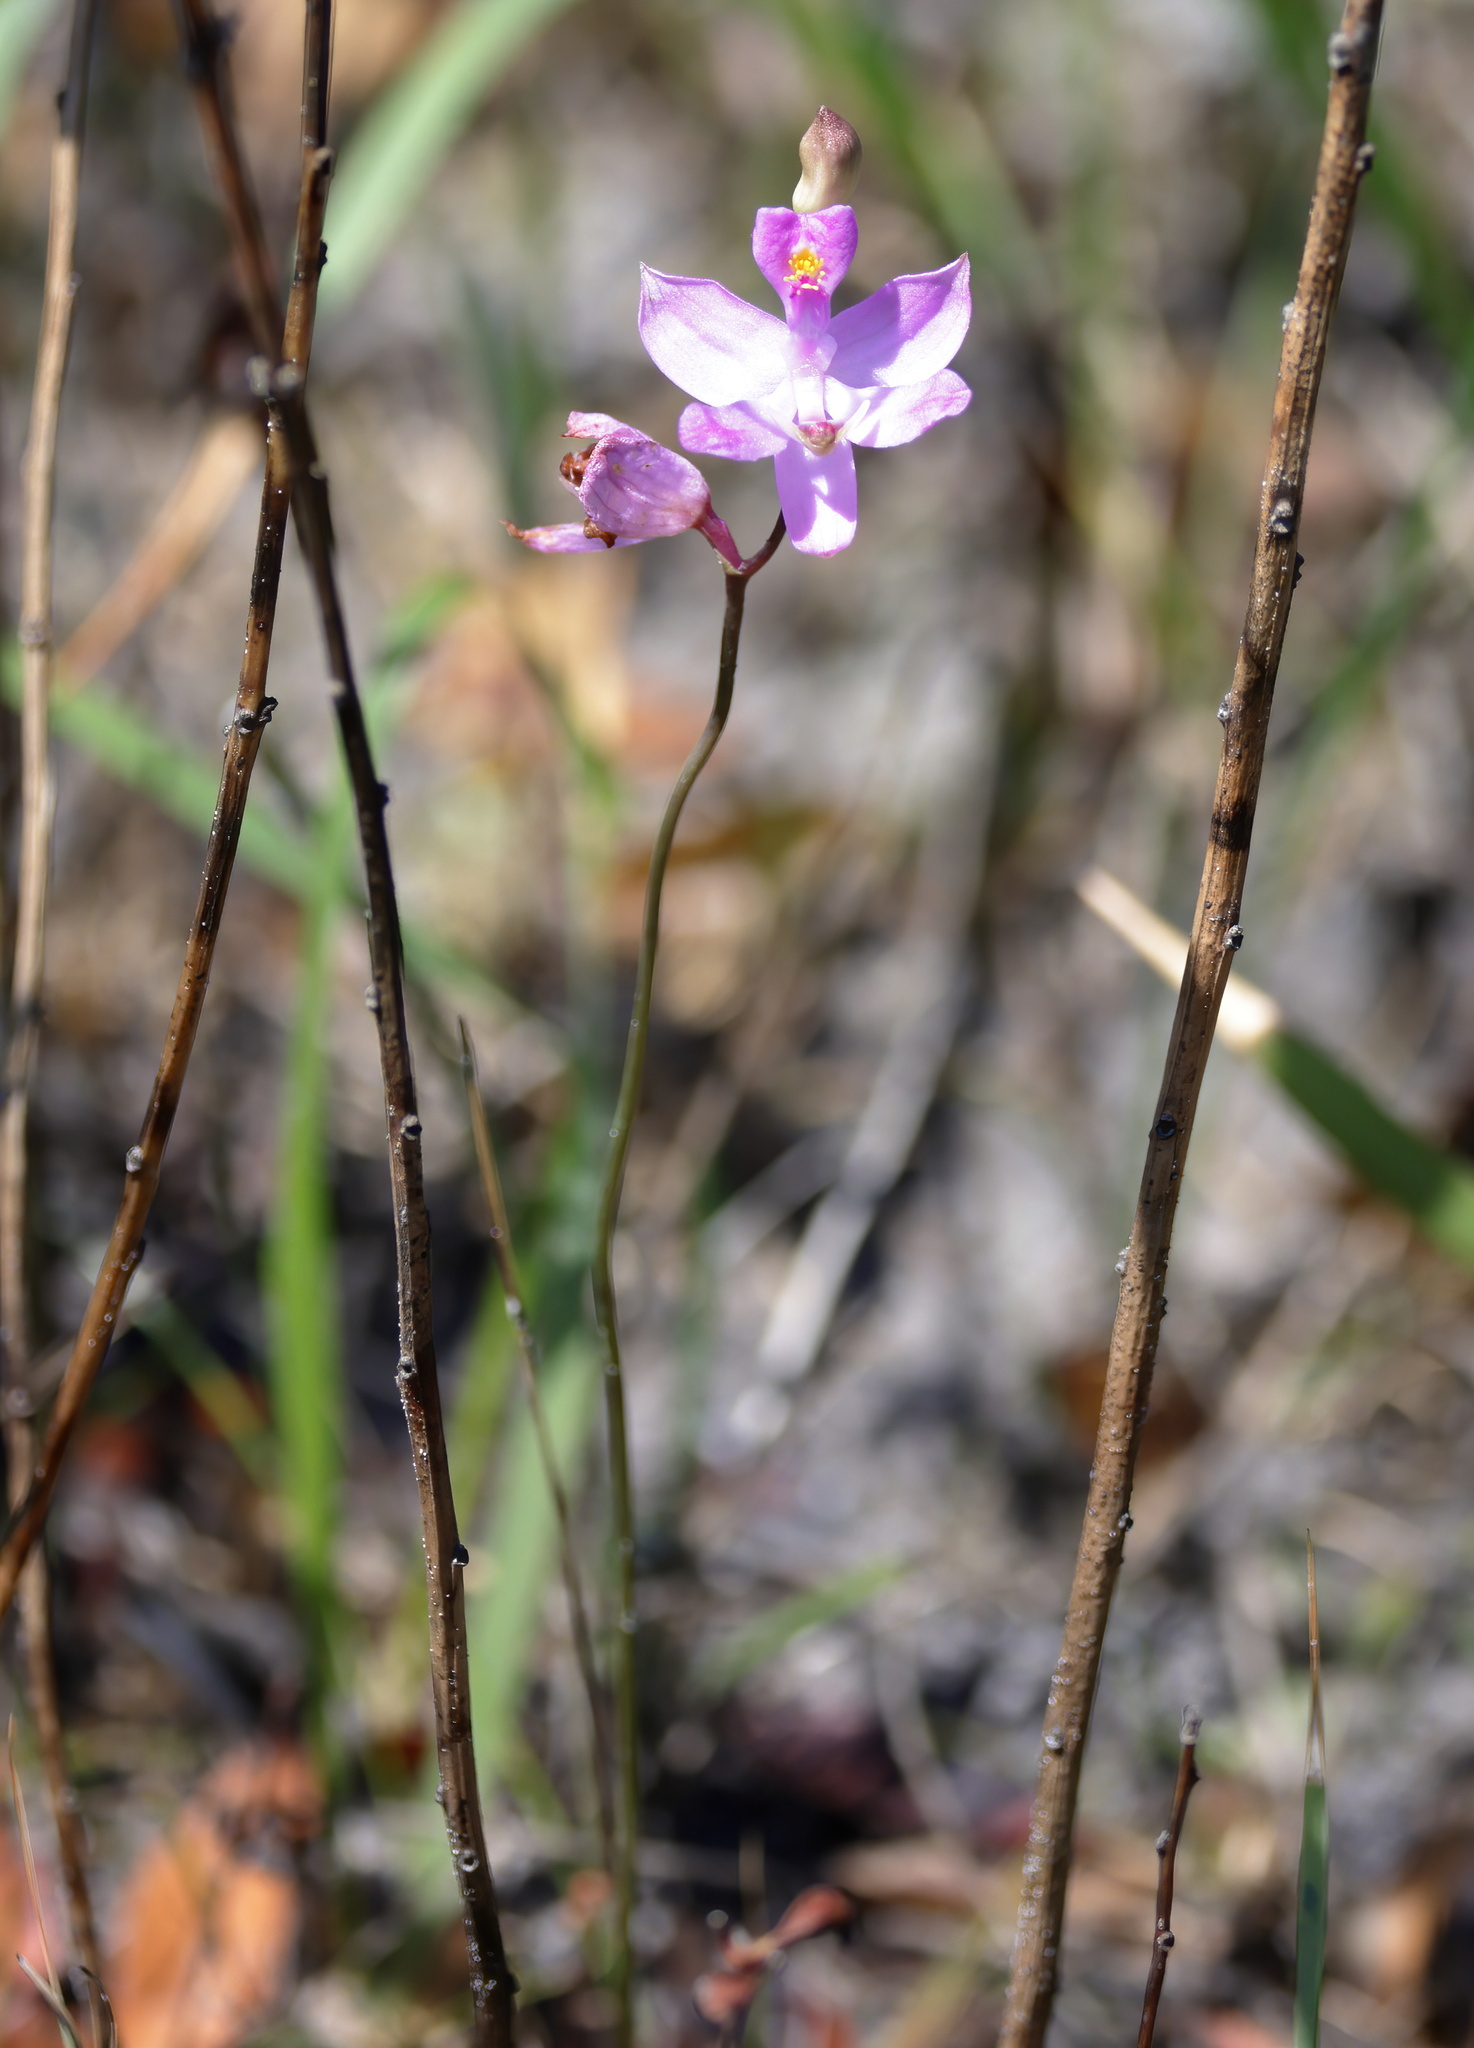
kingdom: Plantae
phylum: Tracheophyta
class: Liliopsida
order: Asparagales
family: Orchidaceae
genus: Calopogon
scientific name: Calopogon barbatus
